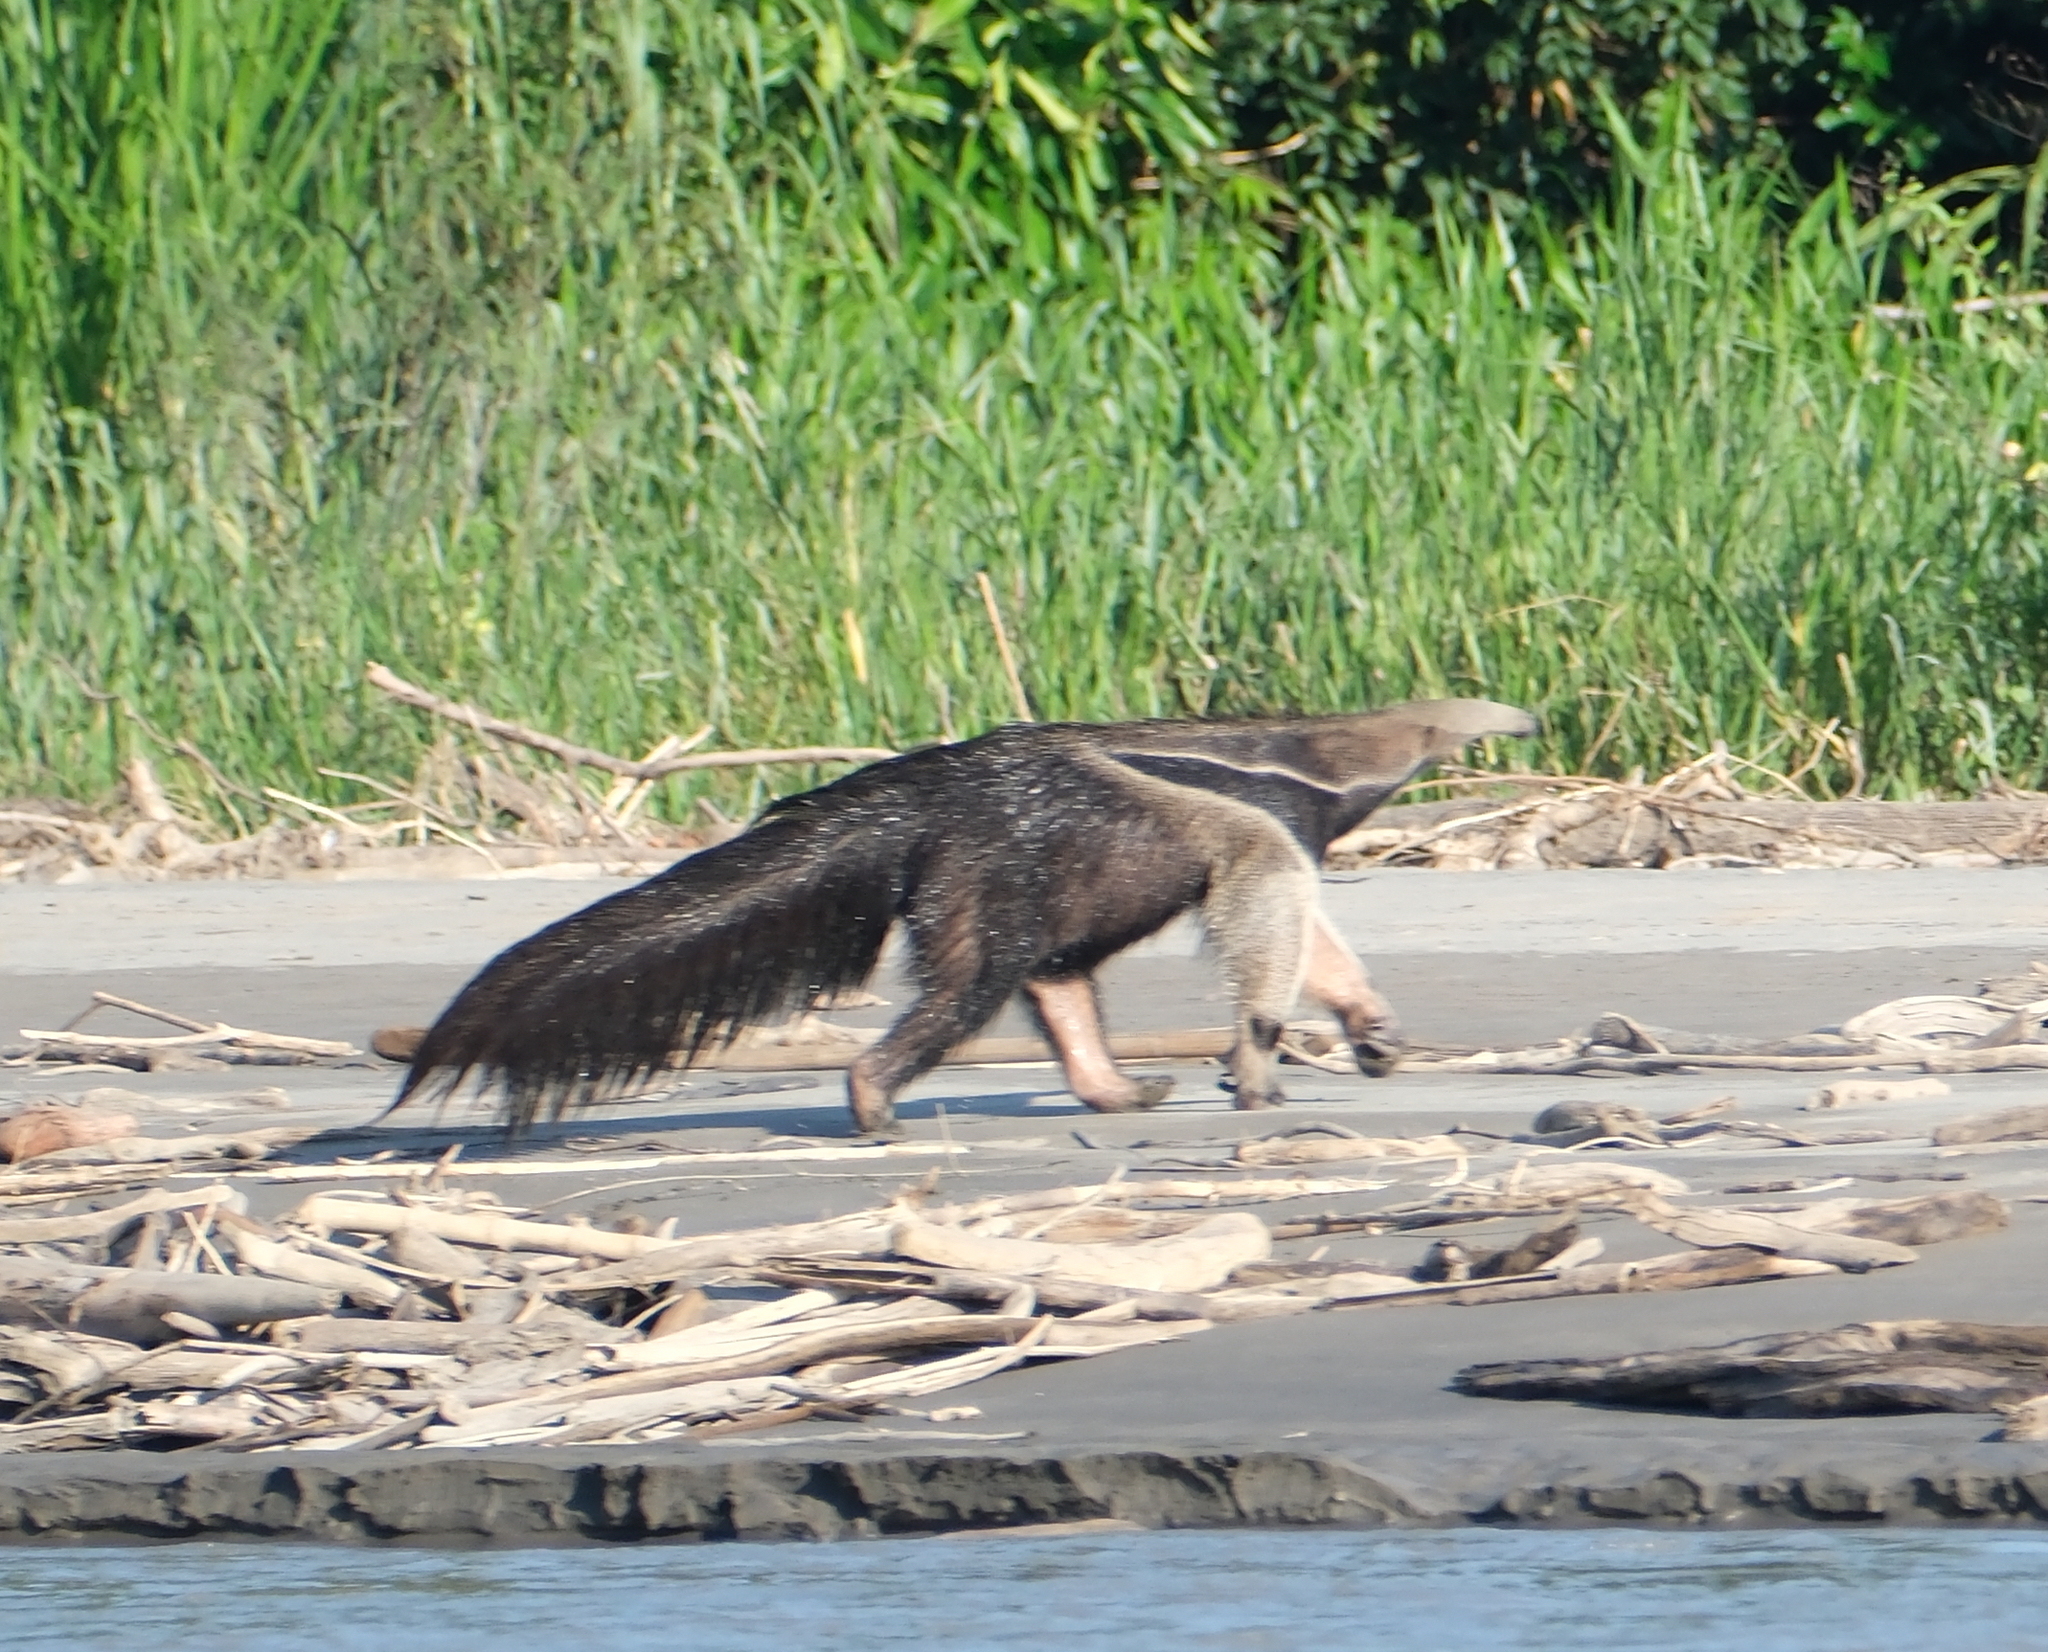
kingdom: Animalia
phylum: Chordata
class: Mammalia
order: Pilosa
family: Myrmecophagidae
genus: Myrmecophaga
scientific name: Myrmecophaga tridactyla
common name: Giant anteater
